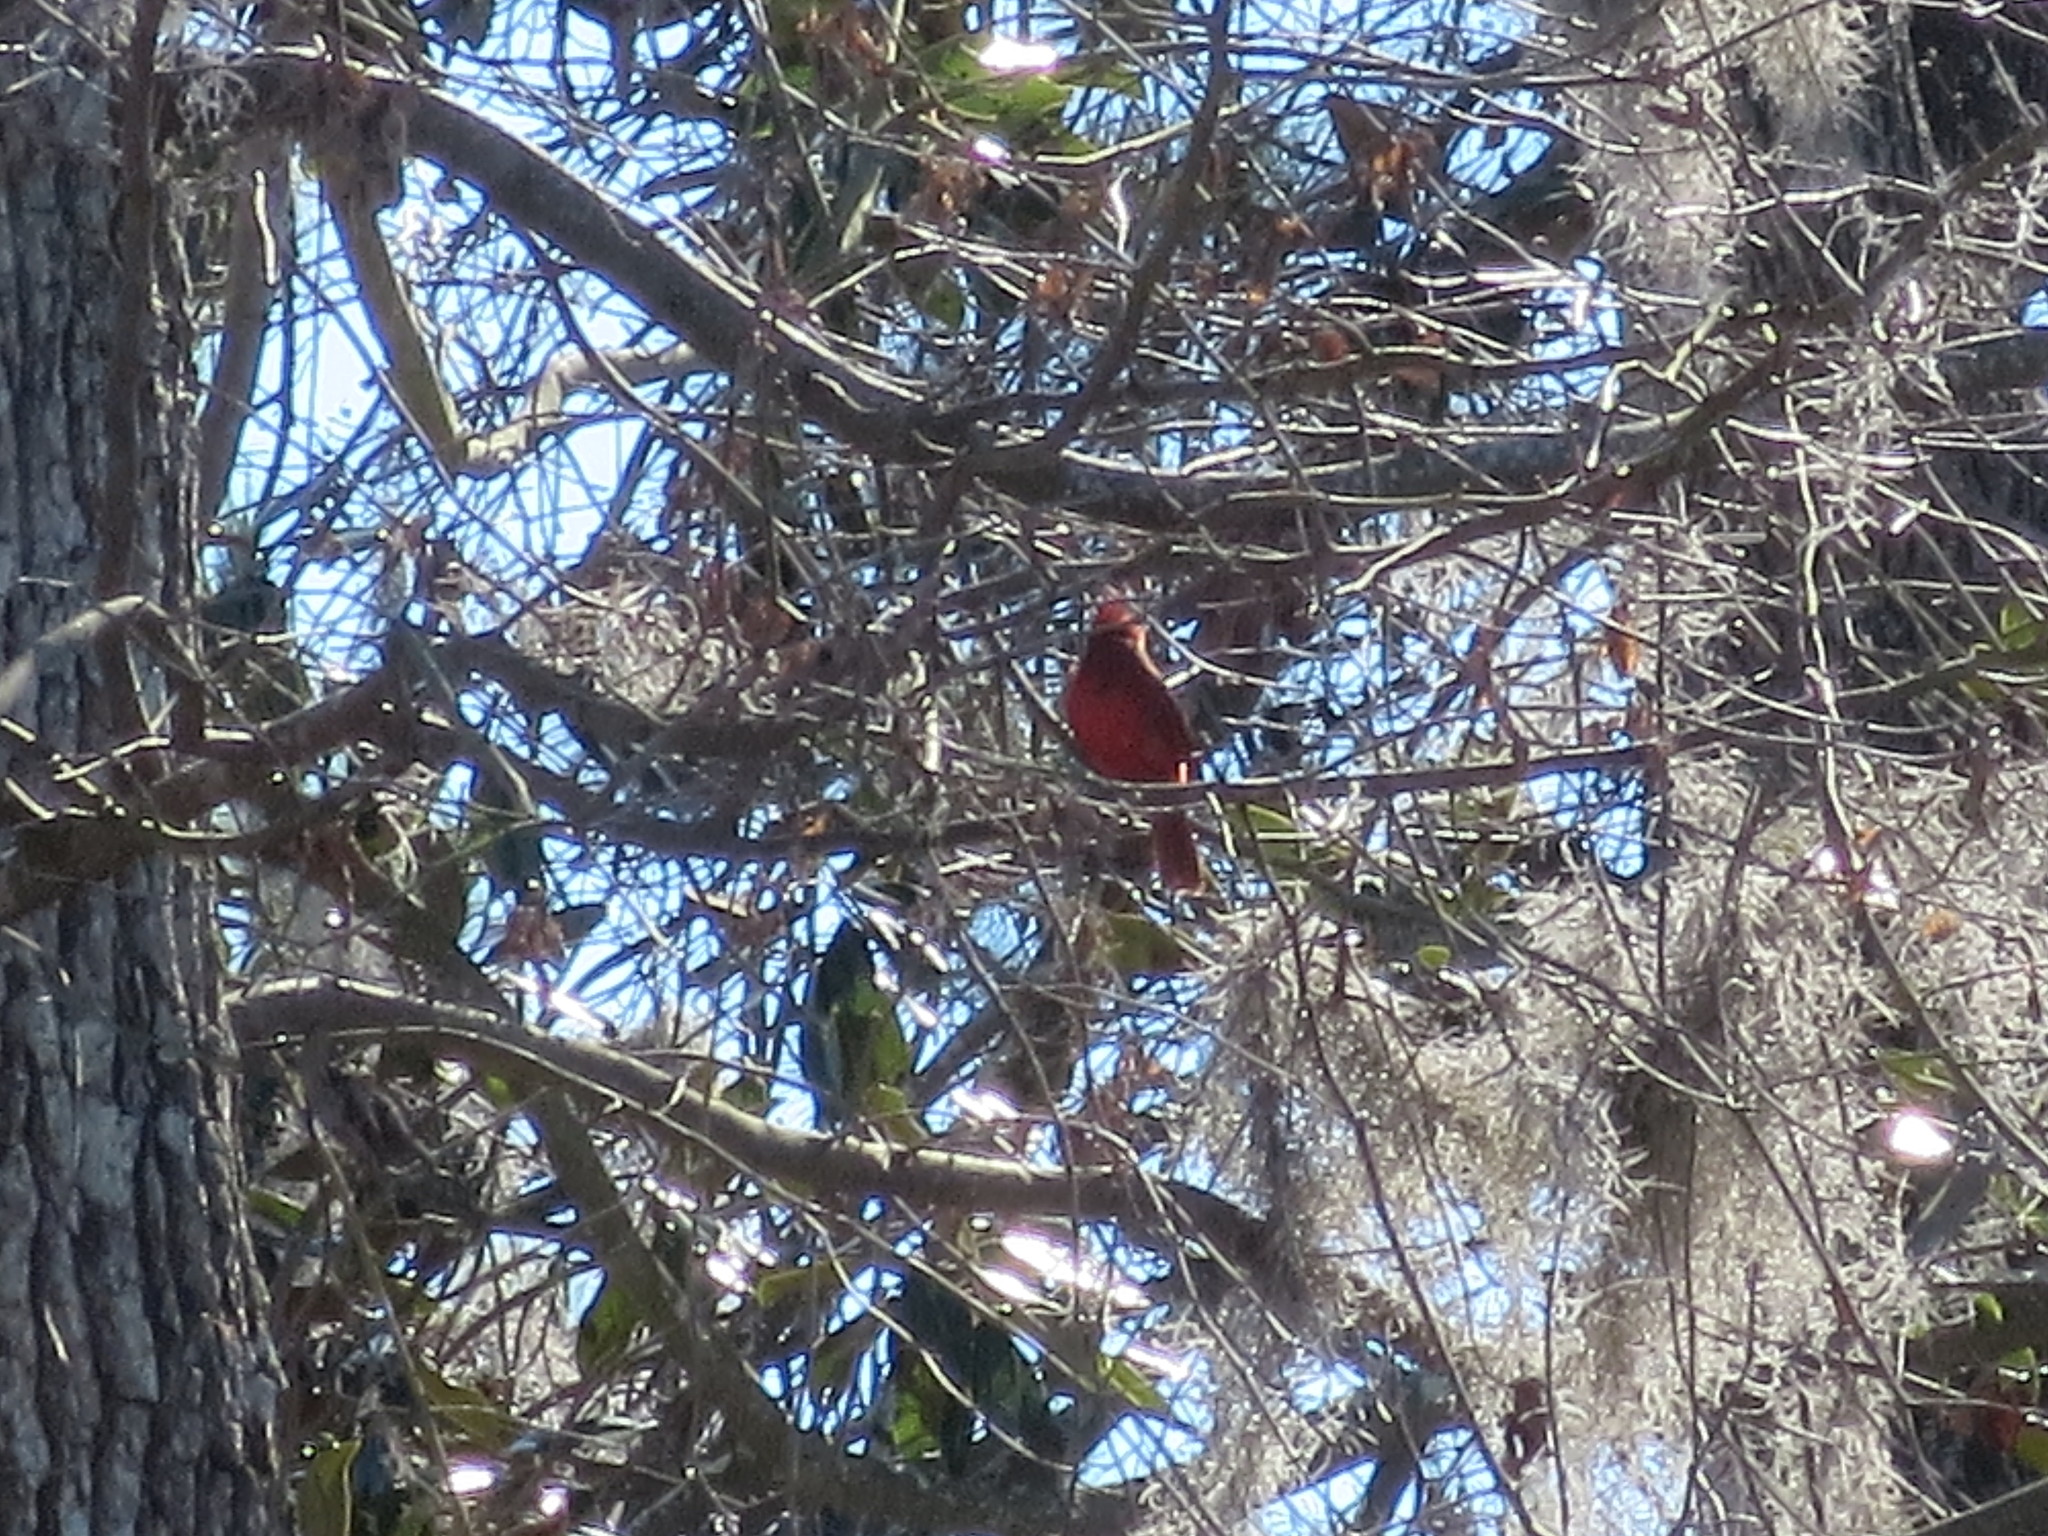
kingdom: Animalia
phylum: Chordata
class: Aves
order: Passeriformes
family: Cardinalidae
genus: Cardinalis
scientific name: Cardinalis cardinalis
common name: Northern cardinal
